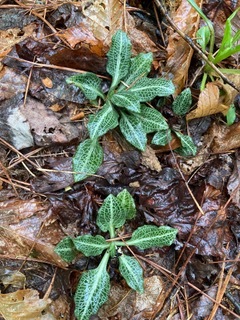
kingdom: Plantae
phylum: Tracheophyta
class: Liliopsida
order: Asparagales
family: Orchidaceae
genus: Goodyera
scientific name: Goodyera pubescens
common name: Downy rattlesnake-plantain
